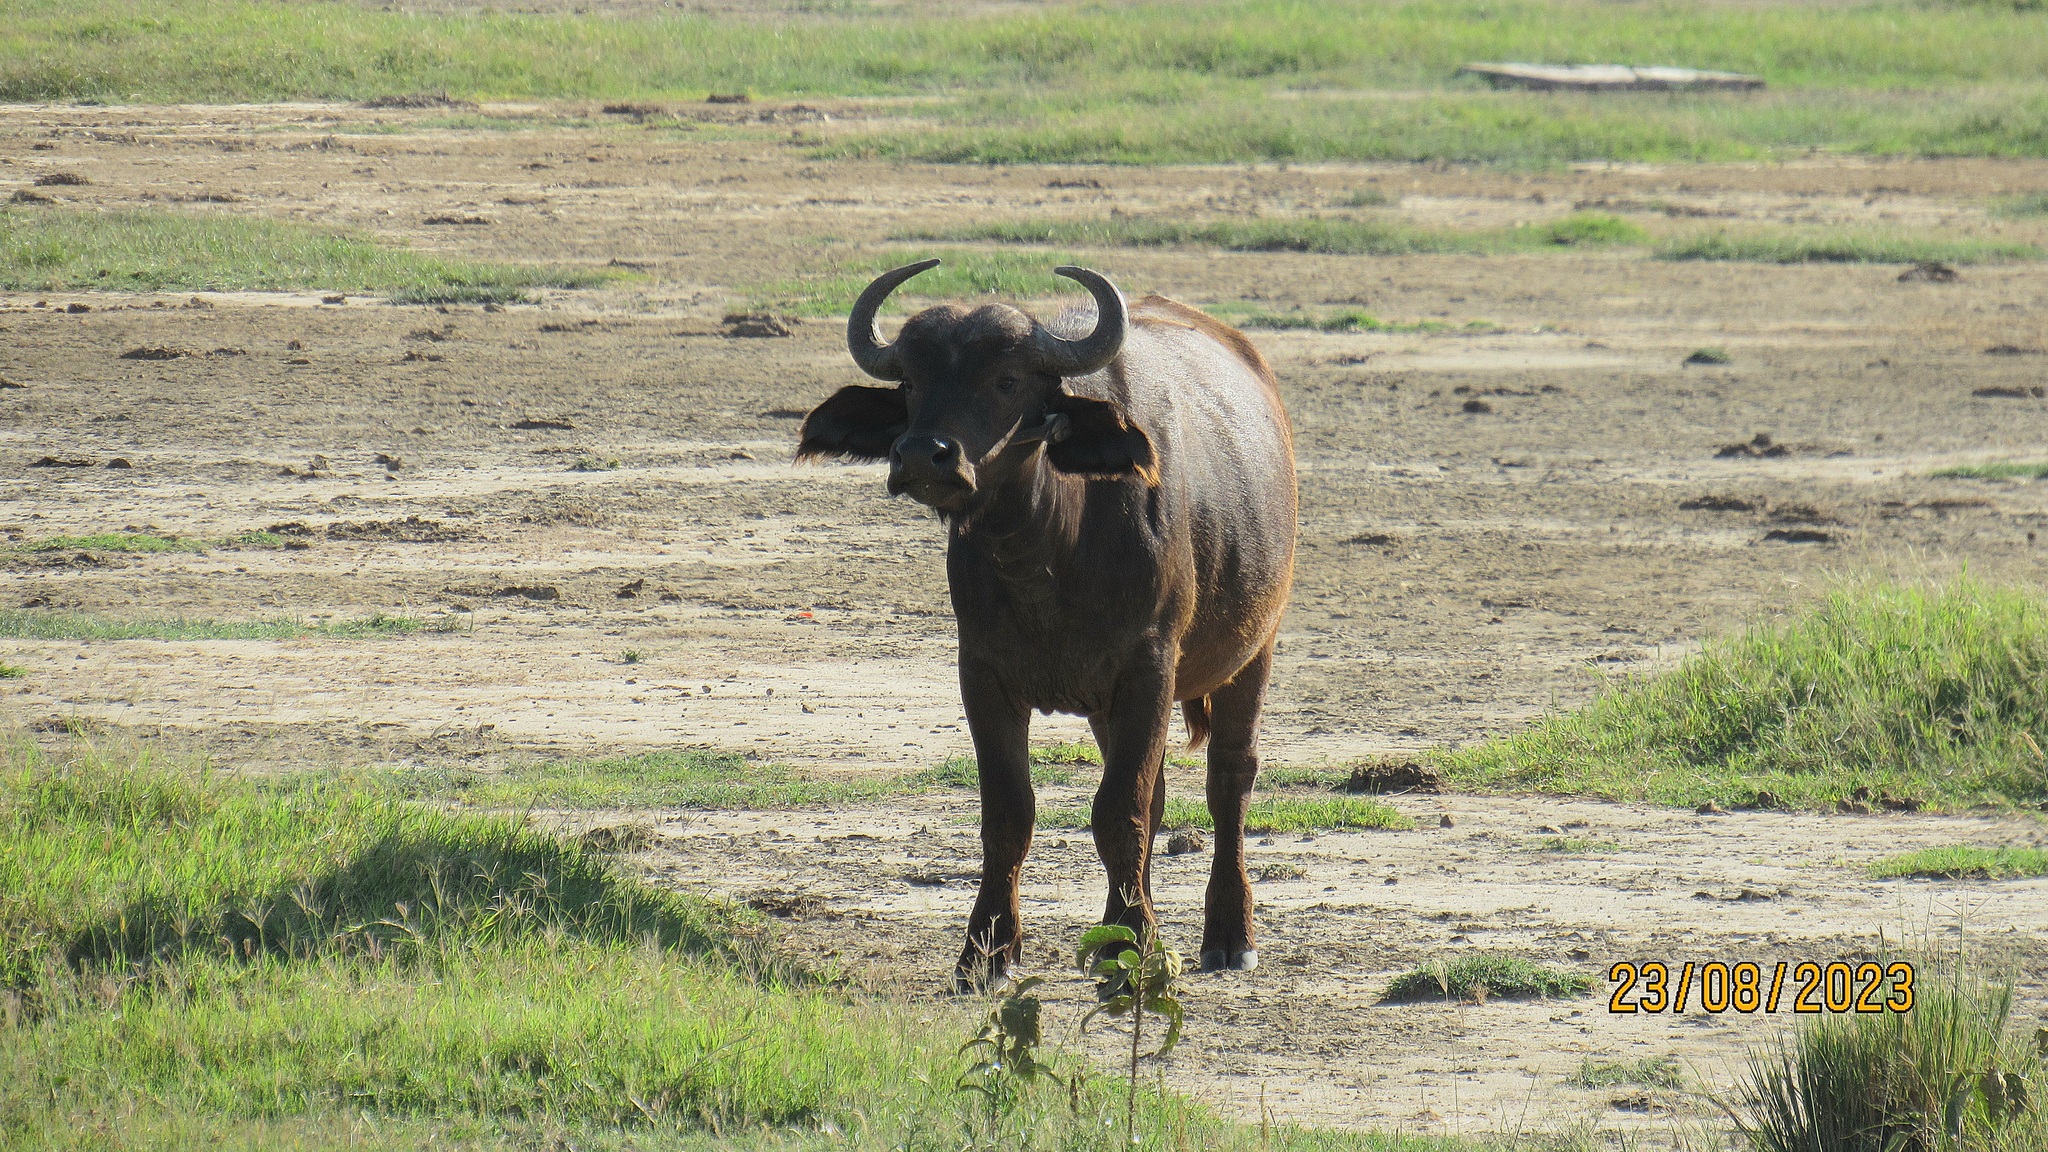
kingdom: Animalia
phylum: Chordata
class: Mammalia
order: Artiodactyla
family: Bovidae
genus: Syncerus
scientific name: Syncerus caffer
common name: African buffalo
